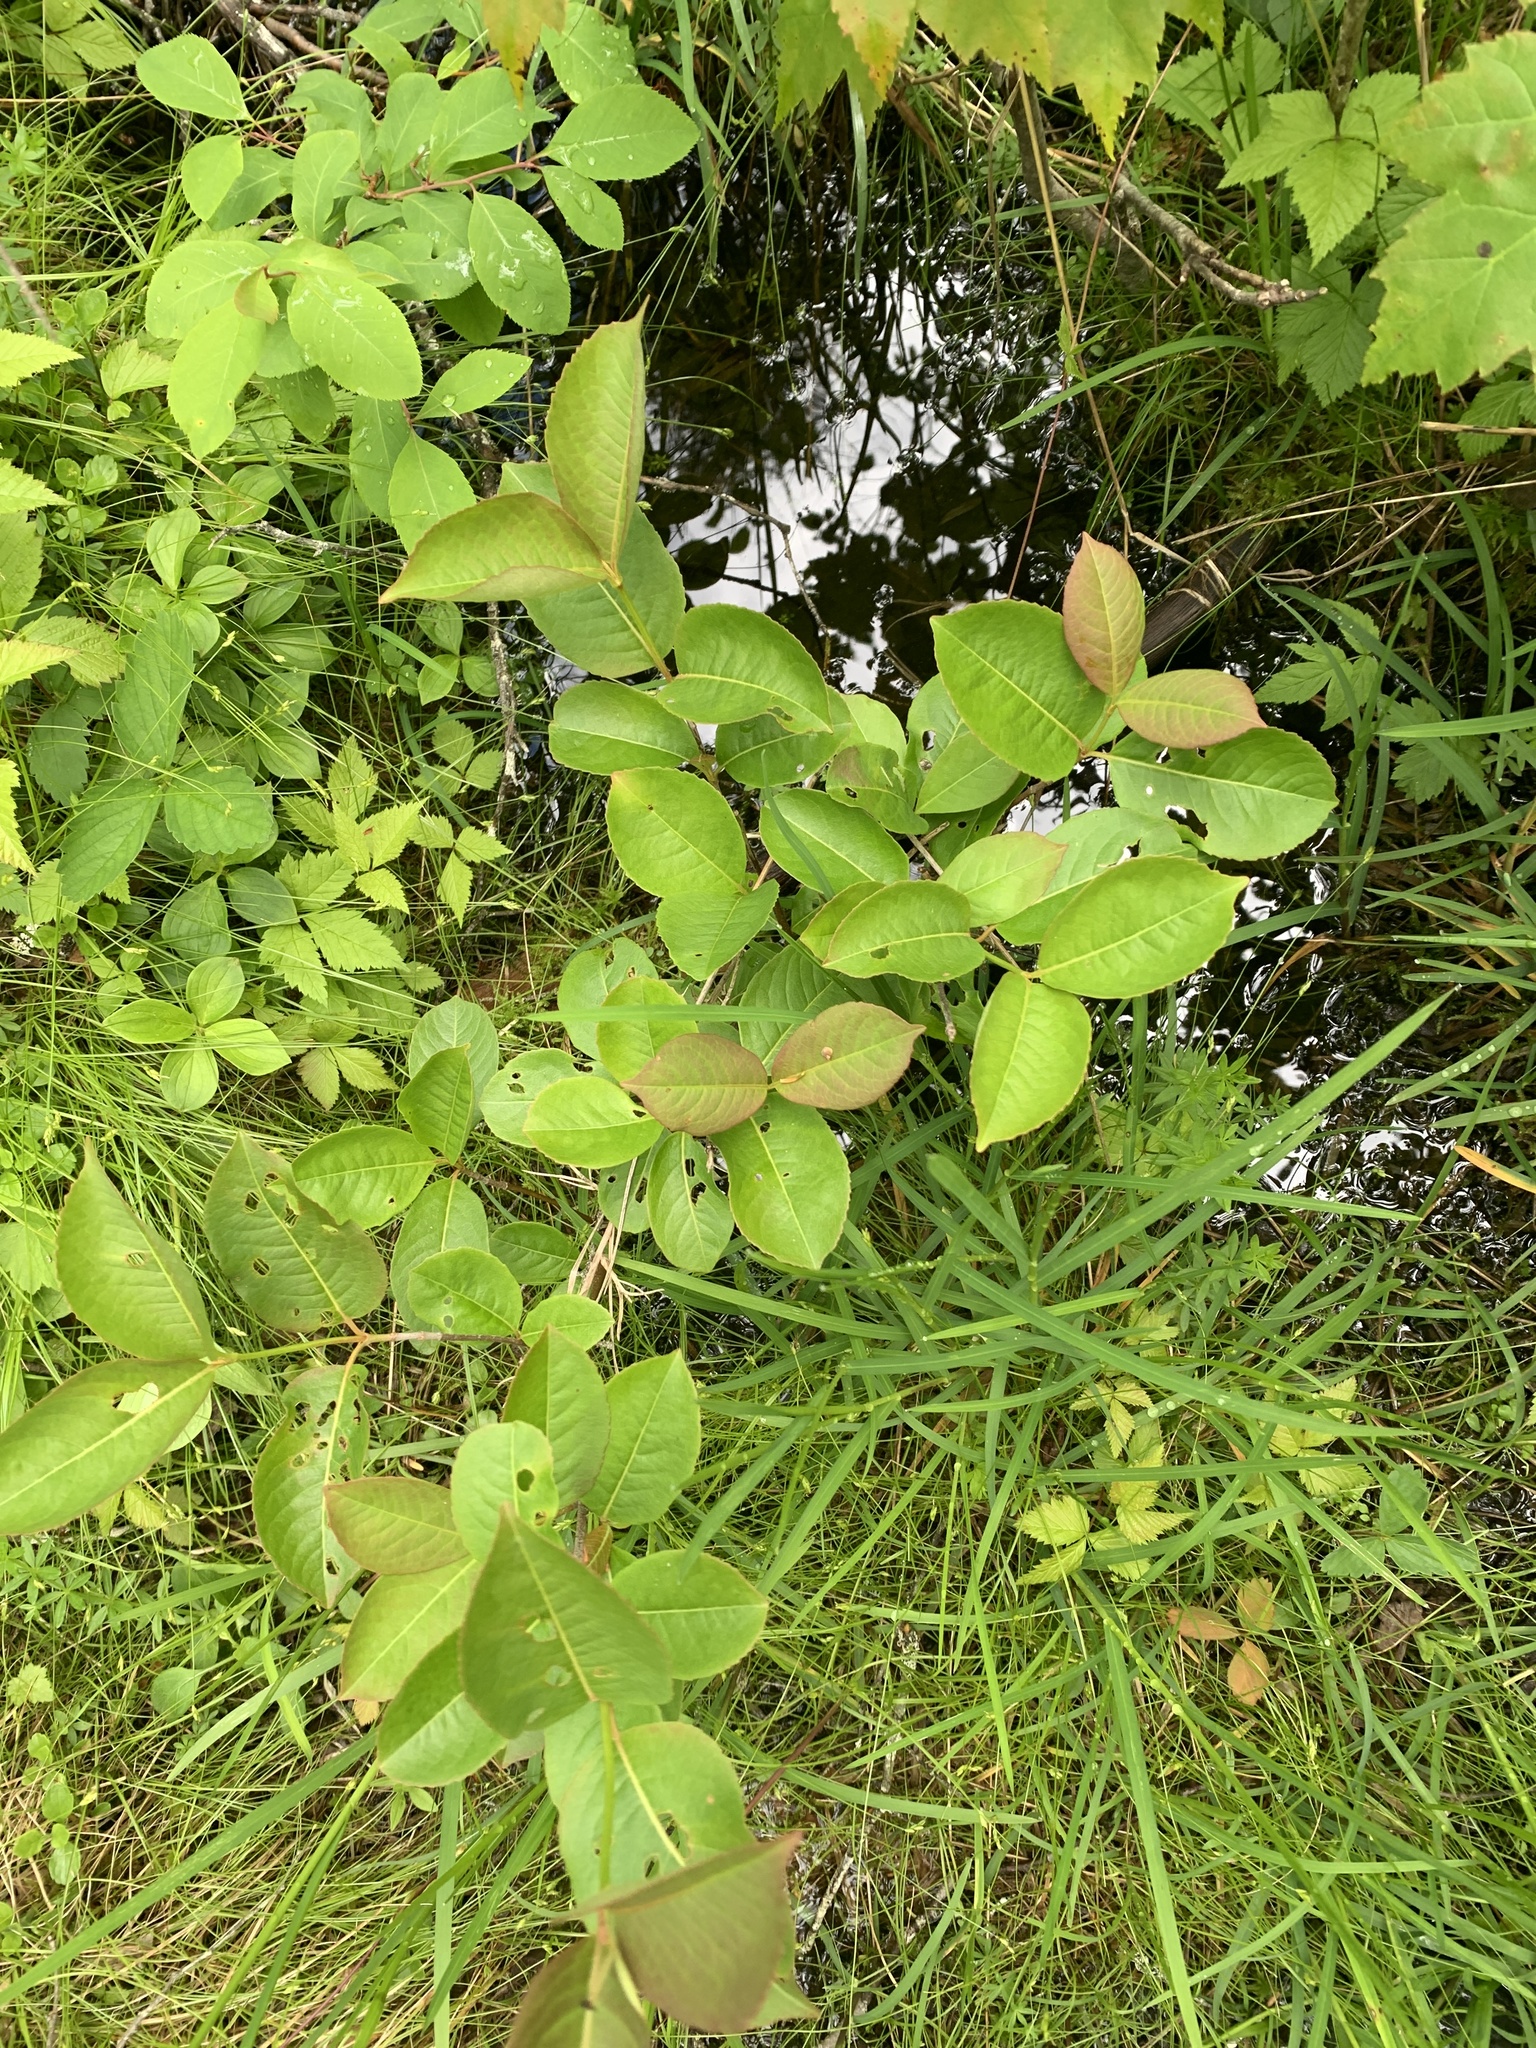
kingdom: Plantae
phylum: Tracheophyta
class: Magnoliopsida
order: Dipsacales
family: Viburnaceae
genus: Viburnum
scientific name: Viburnum cassinoides
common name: Swamp haw
